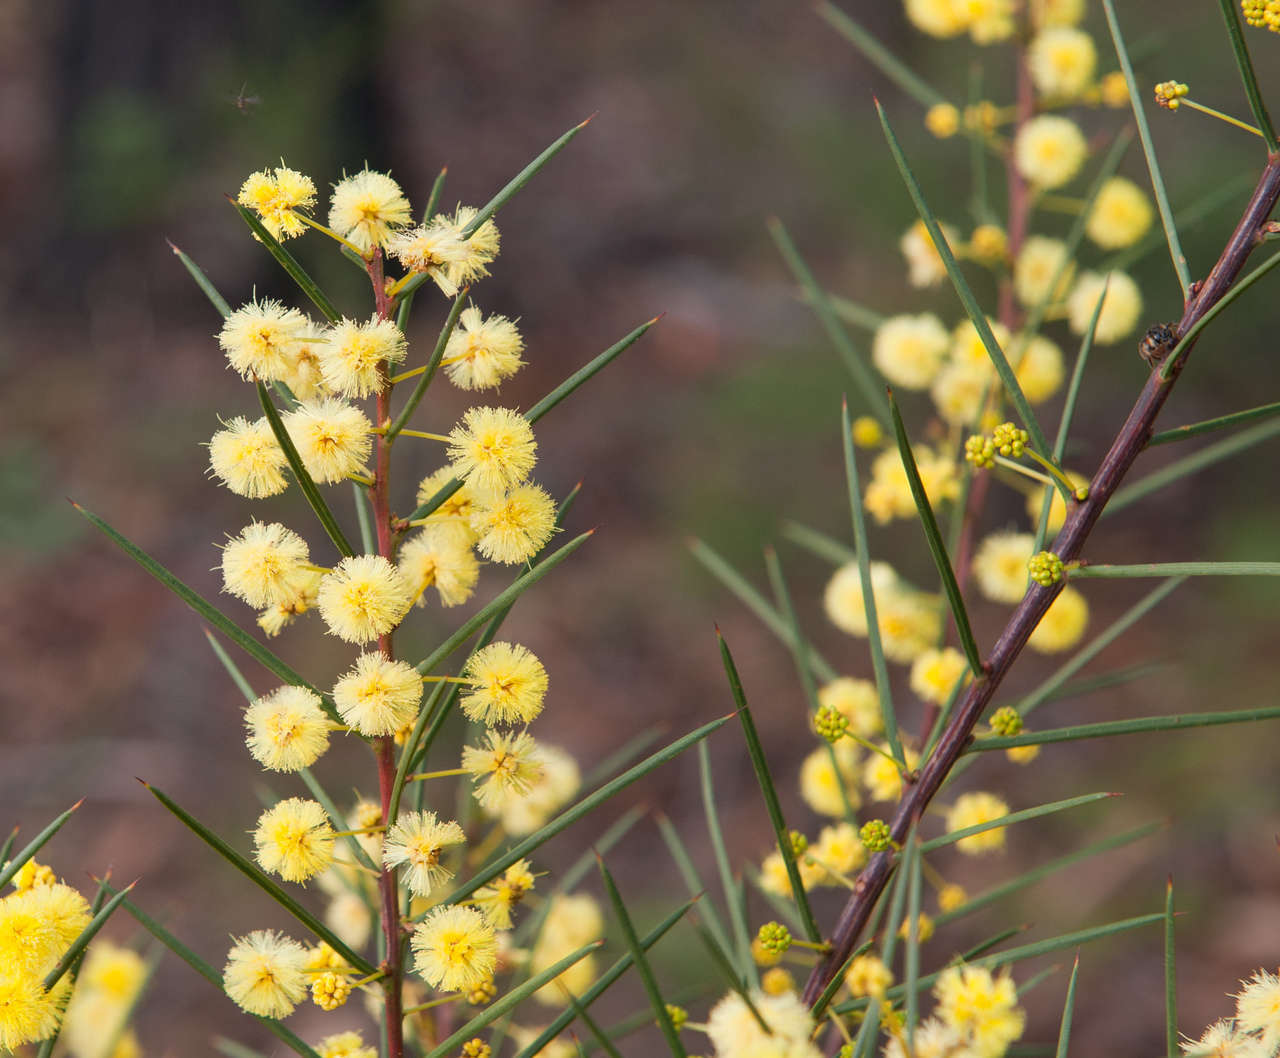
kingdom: Plantae
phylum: Tracheophyta
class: Magnoliopsida
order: Fabales
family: Fabaceae
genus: Acacia
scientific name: Acacia genistifolia
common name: Early wattle
